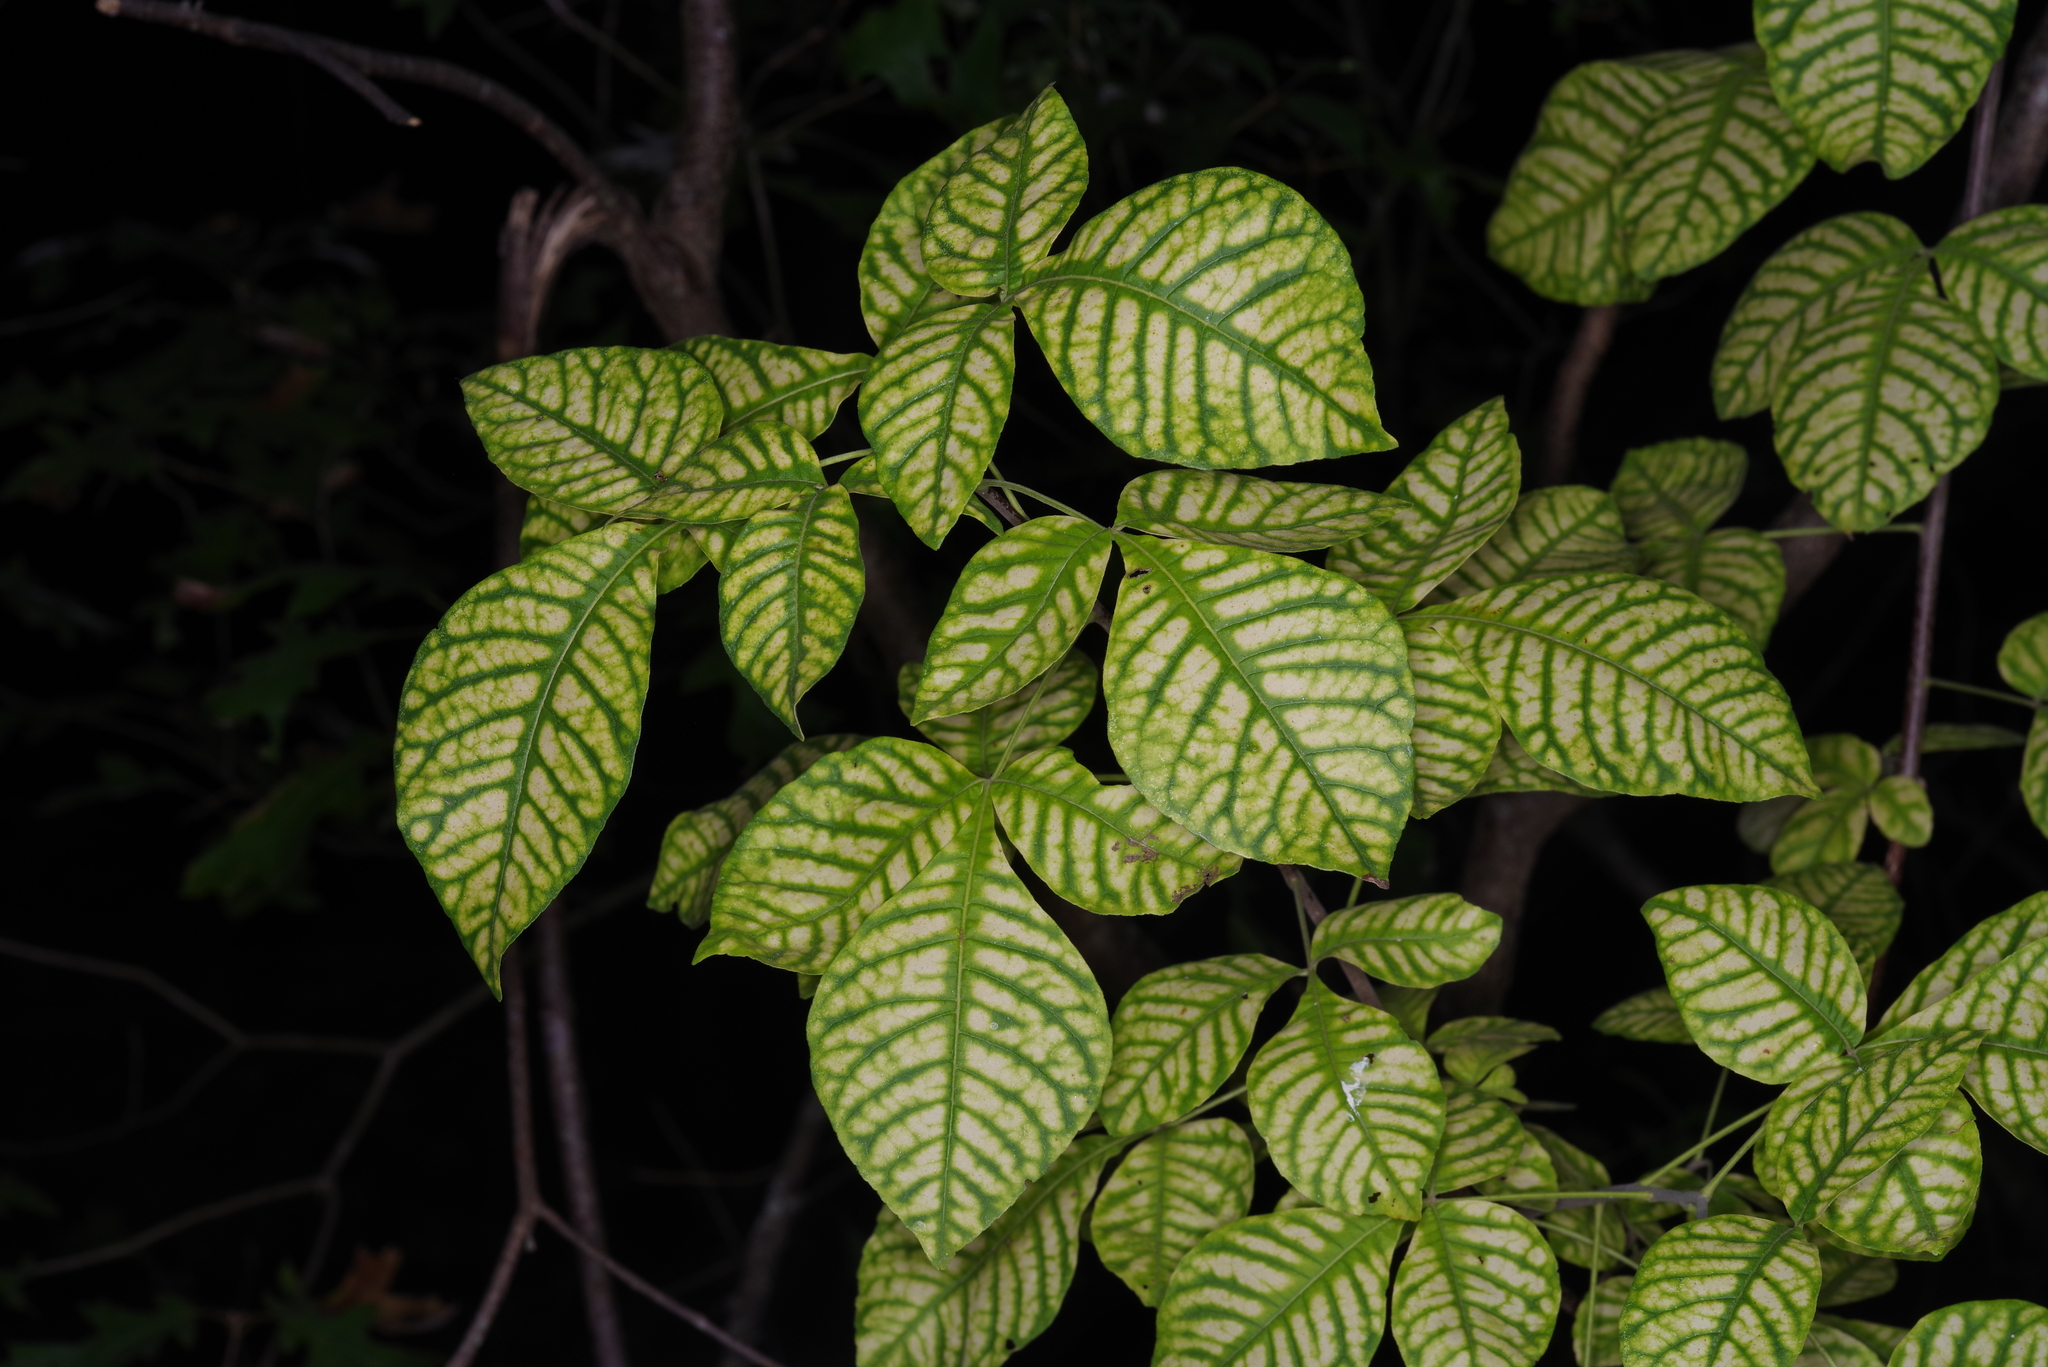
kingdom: Plantae
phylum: Tracheophyta
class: Magnoliopsida
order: Sapindales
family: Rutaceae
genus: Ptelea
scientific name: Ptelea trifoliata
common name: Common hop-tree
